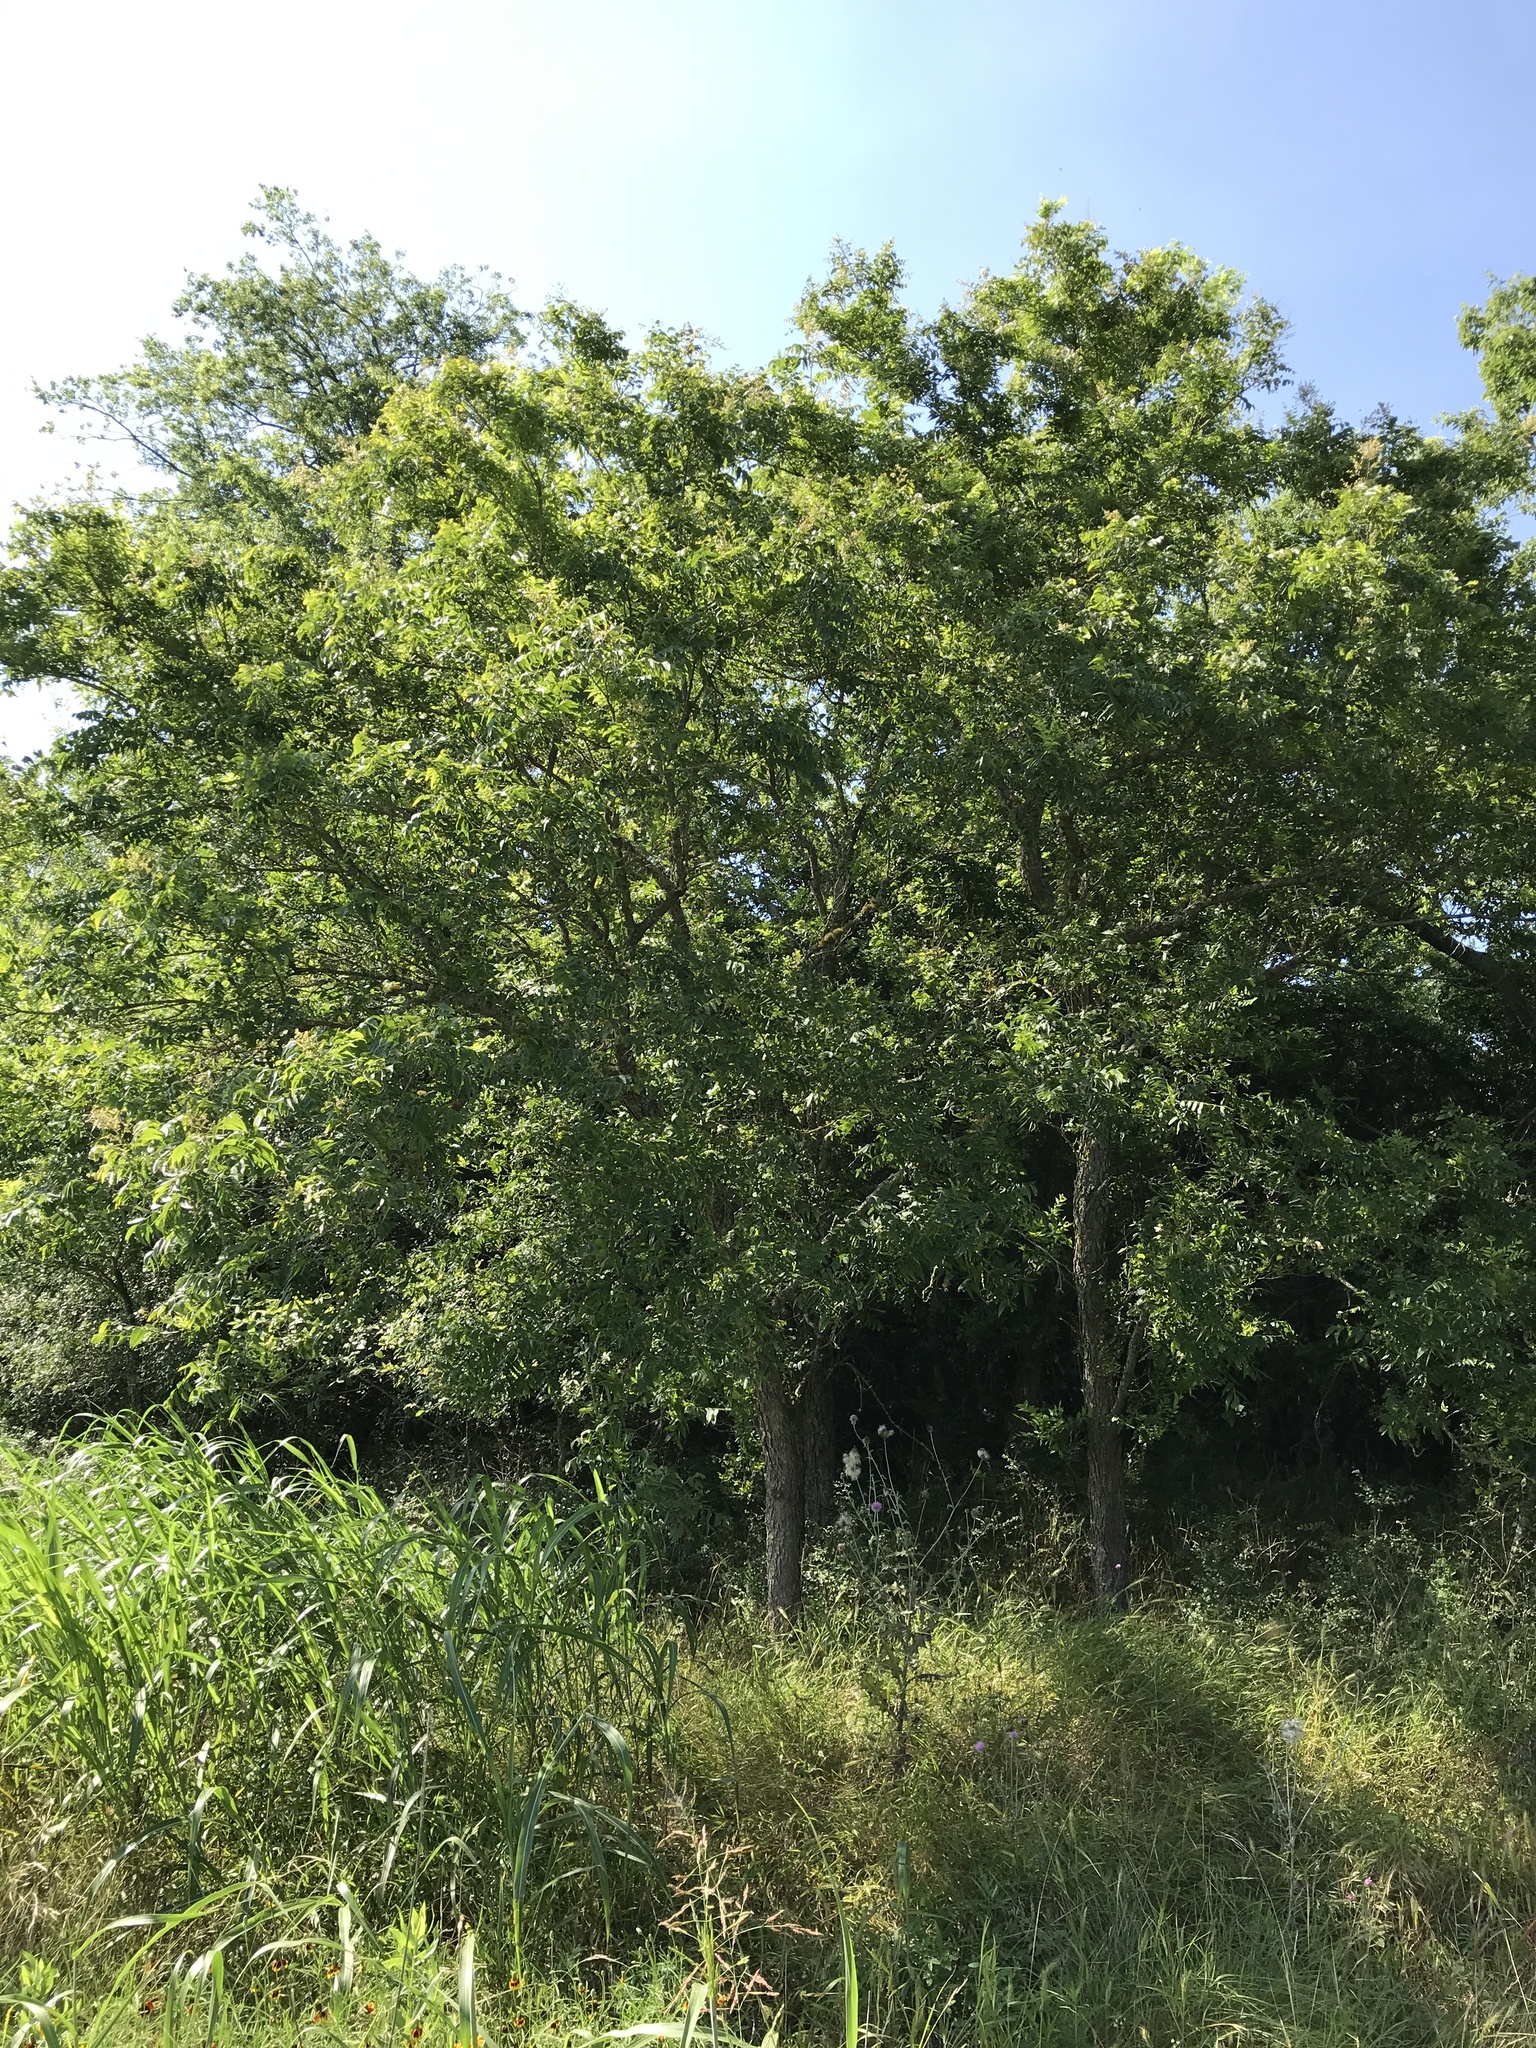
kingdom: Plantae
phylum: Tracheophyta
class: Magnoliopsida
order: Sapindales
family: Sapindaceae
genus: Sapindus
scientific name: Sapindus drummondii
